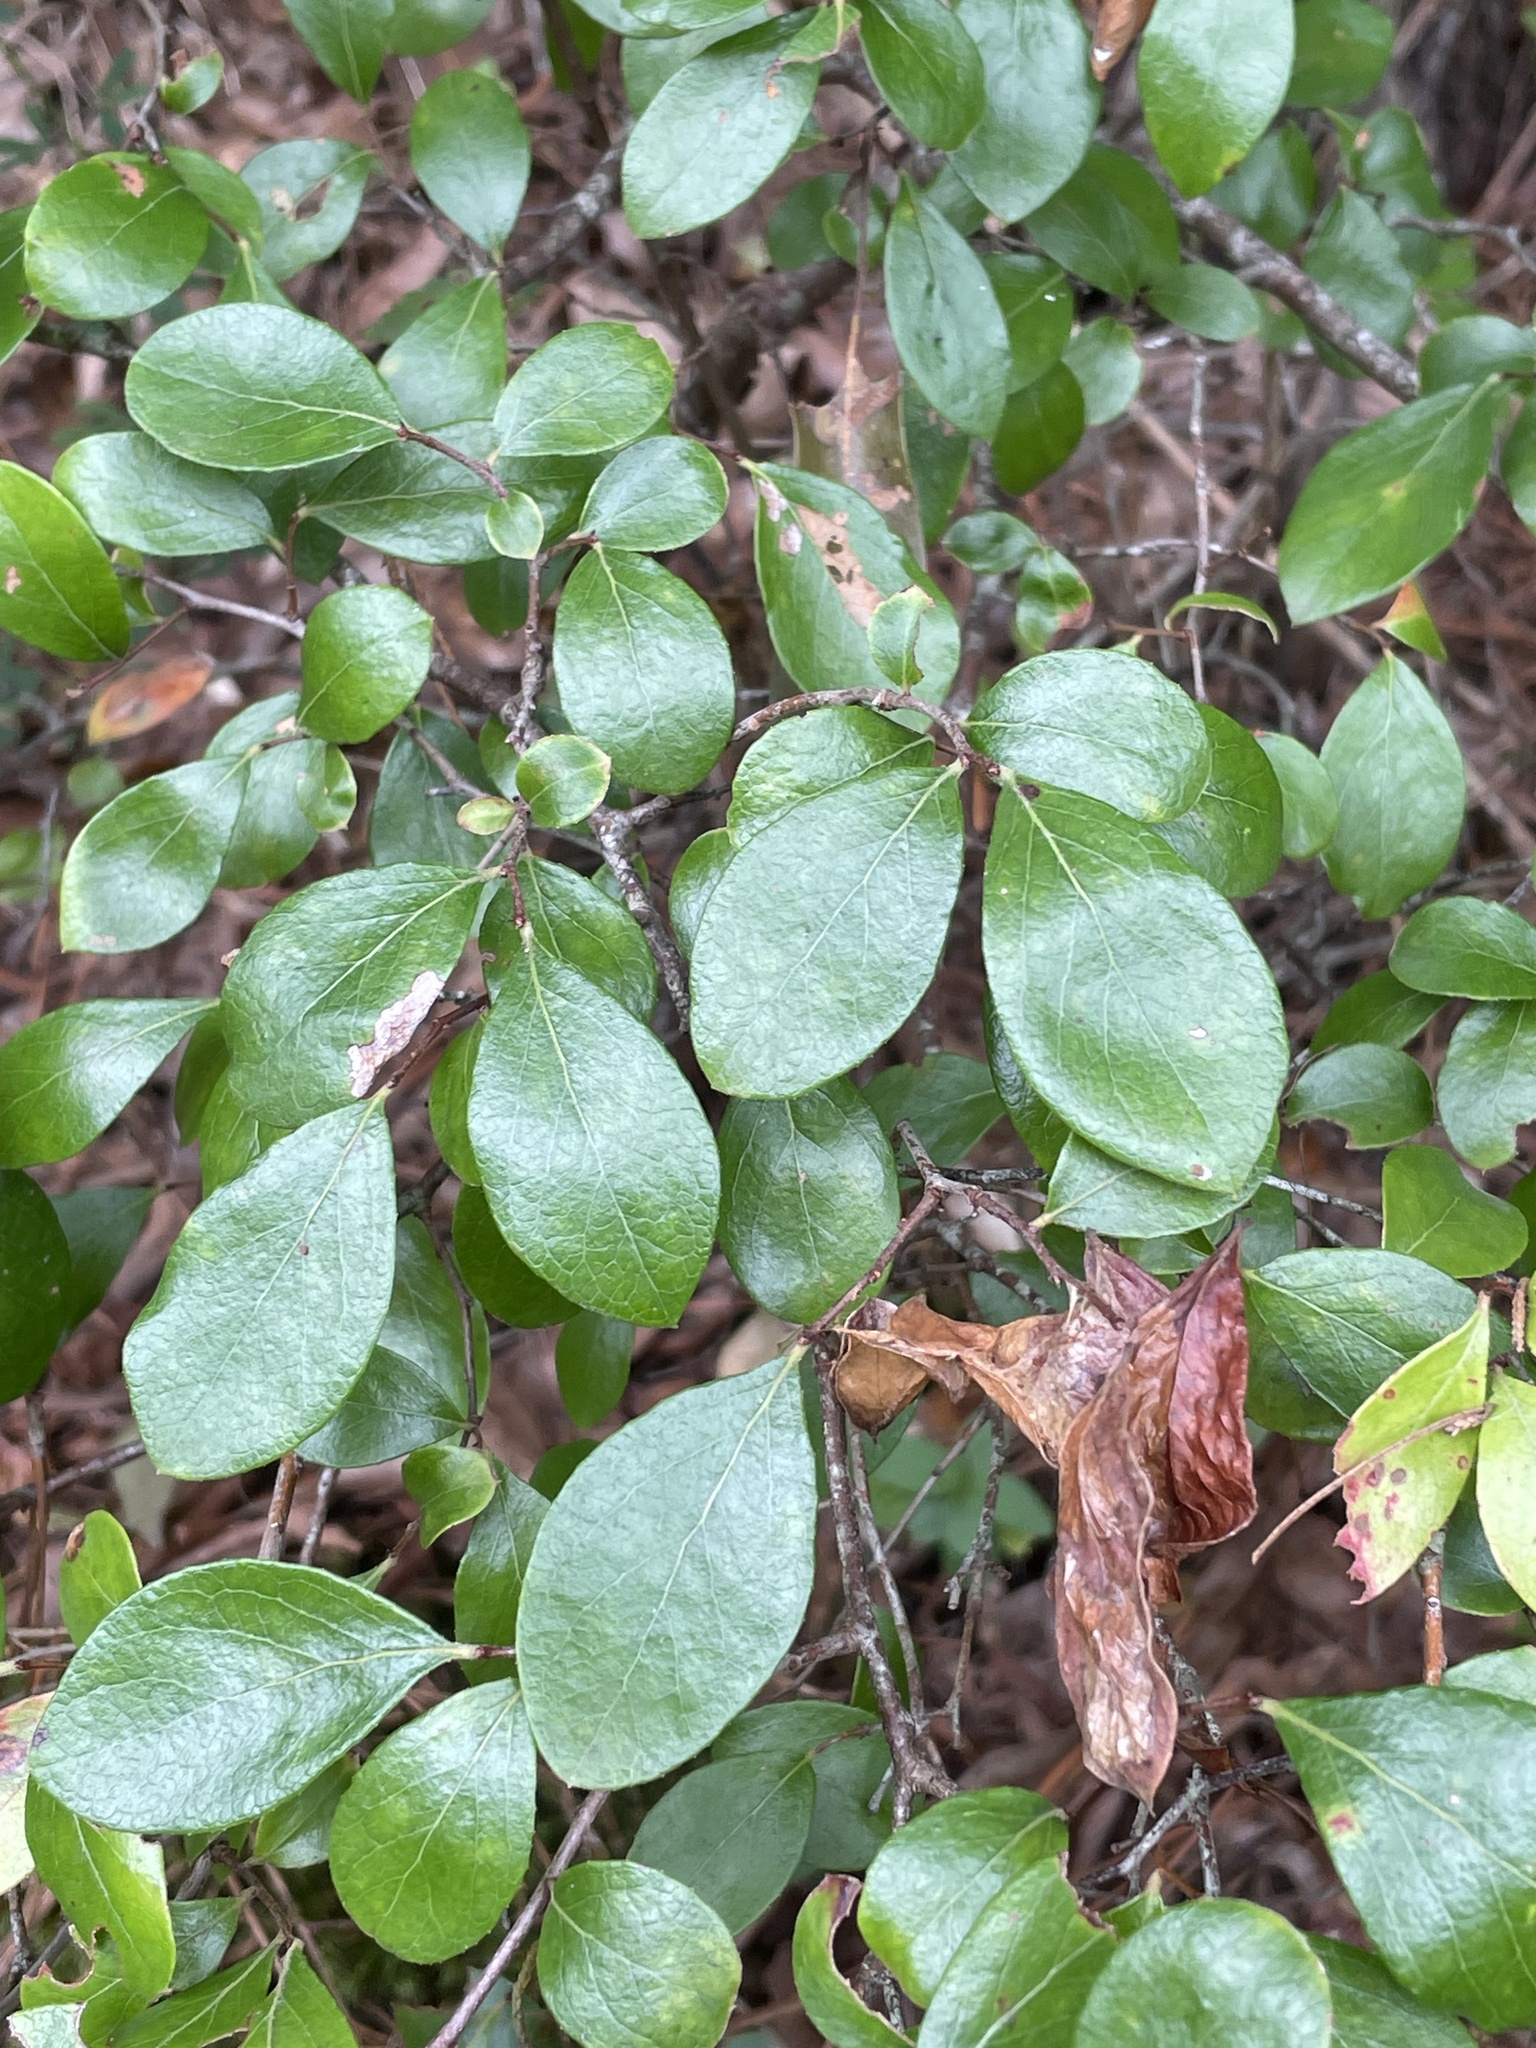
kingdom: Plantae
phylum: Tracheophyta
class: Magnoliopsida
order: Ericales
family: Ericaceae
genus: Vaccinium
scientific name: Vaccinium arboreum
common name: Farkleberry
